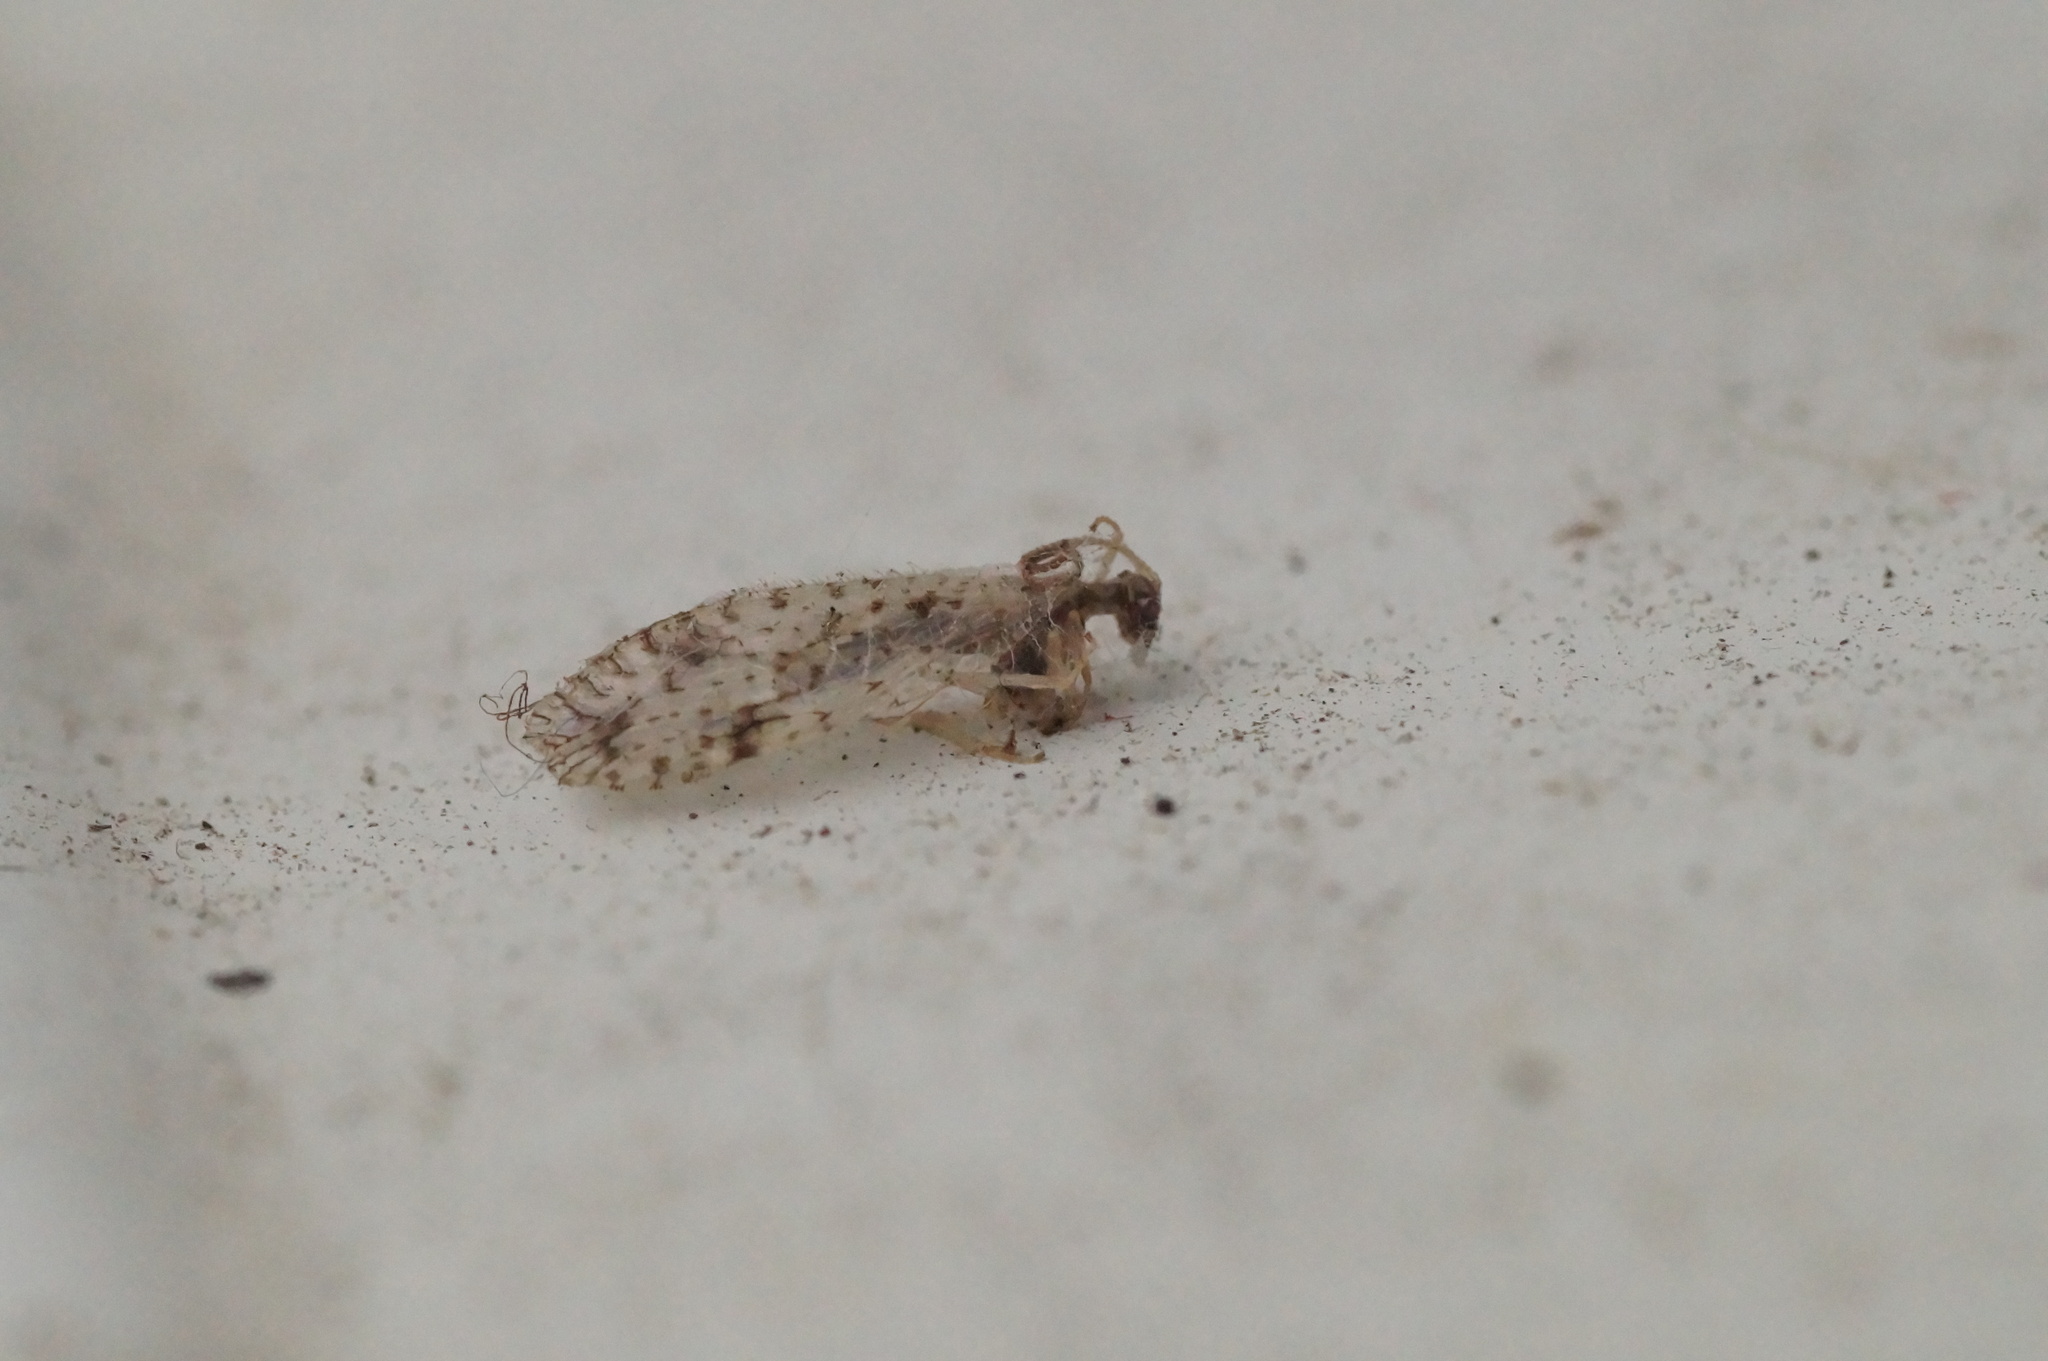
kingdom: Animalia
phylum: Arthropoda
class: Insecta
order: Neuroptera
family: Hemerobiidae
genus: Micromus
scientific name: Micromus variegatus
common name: Brown lacewing
